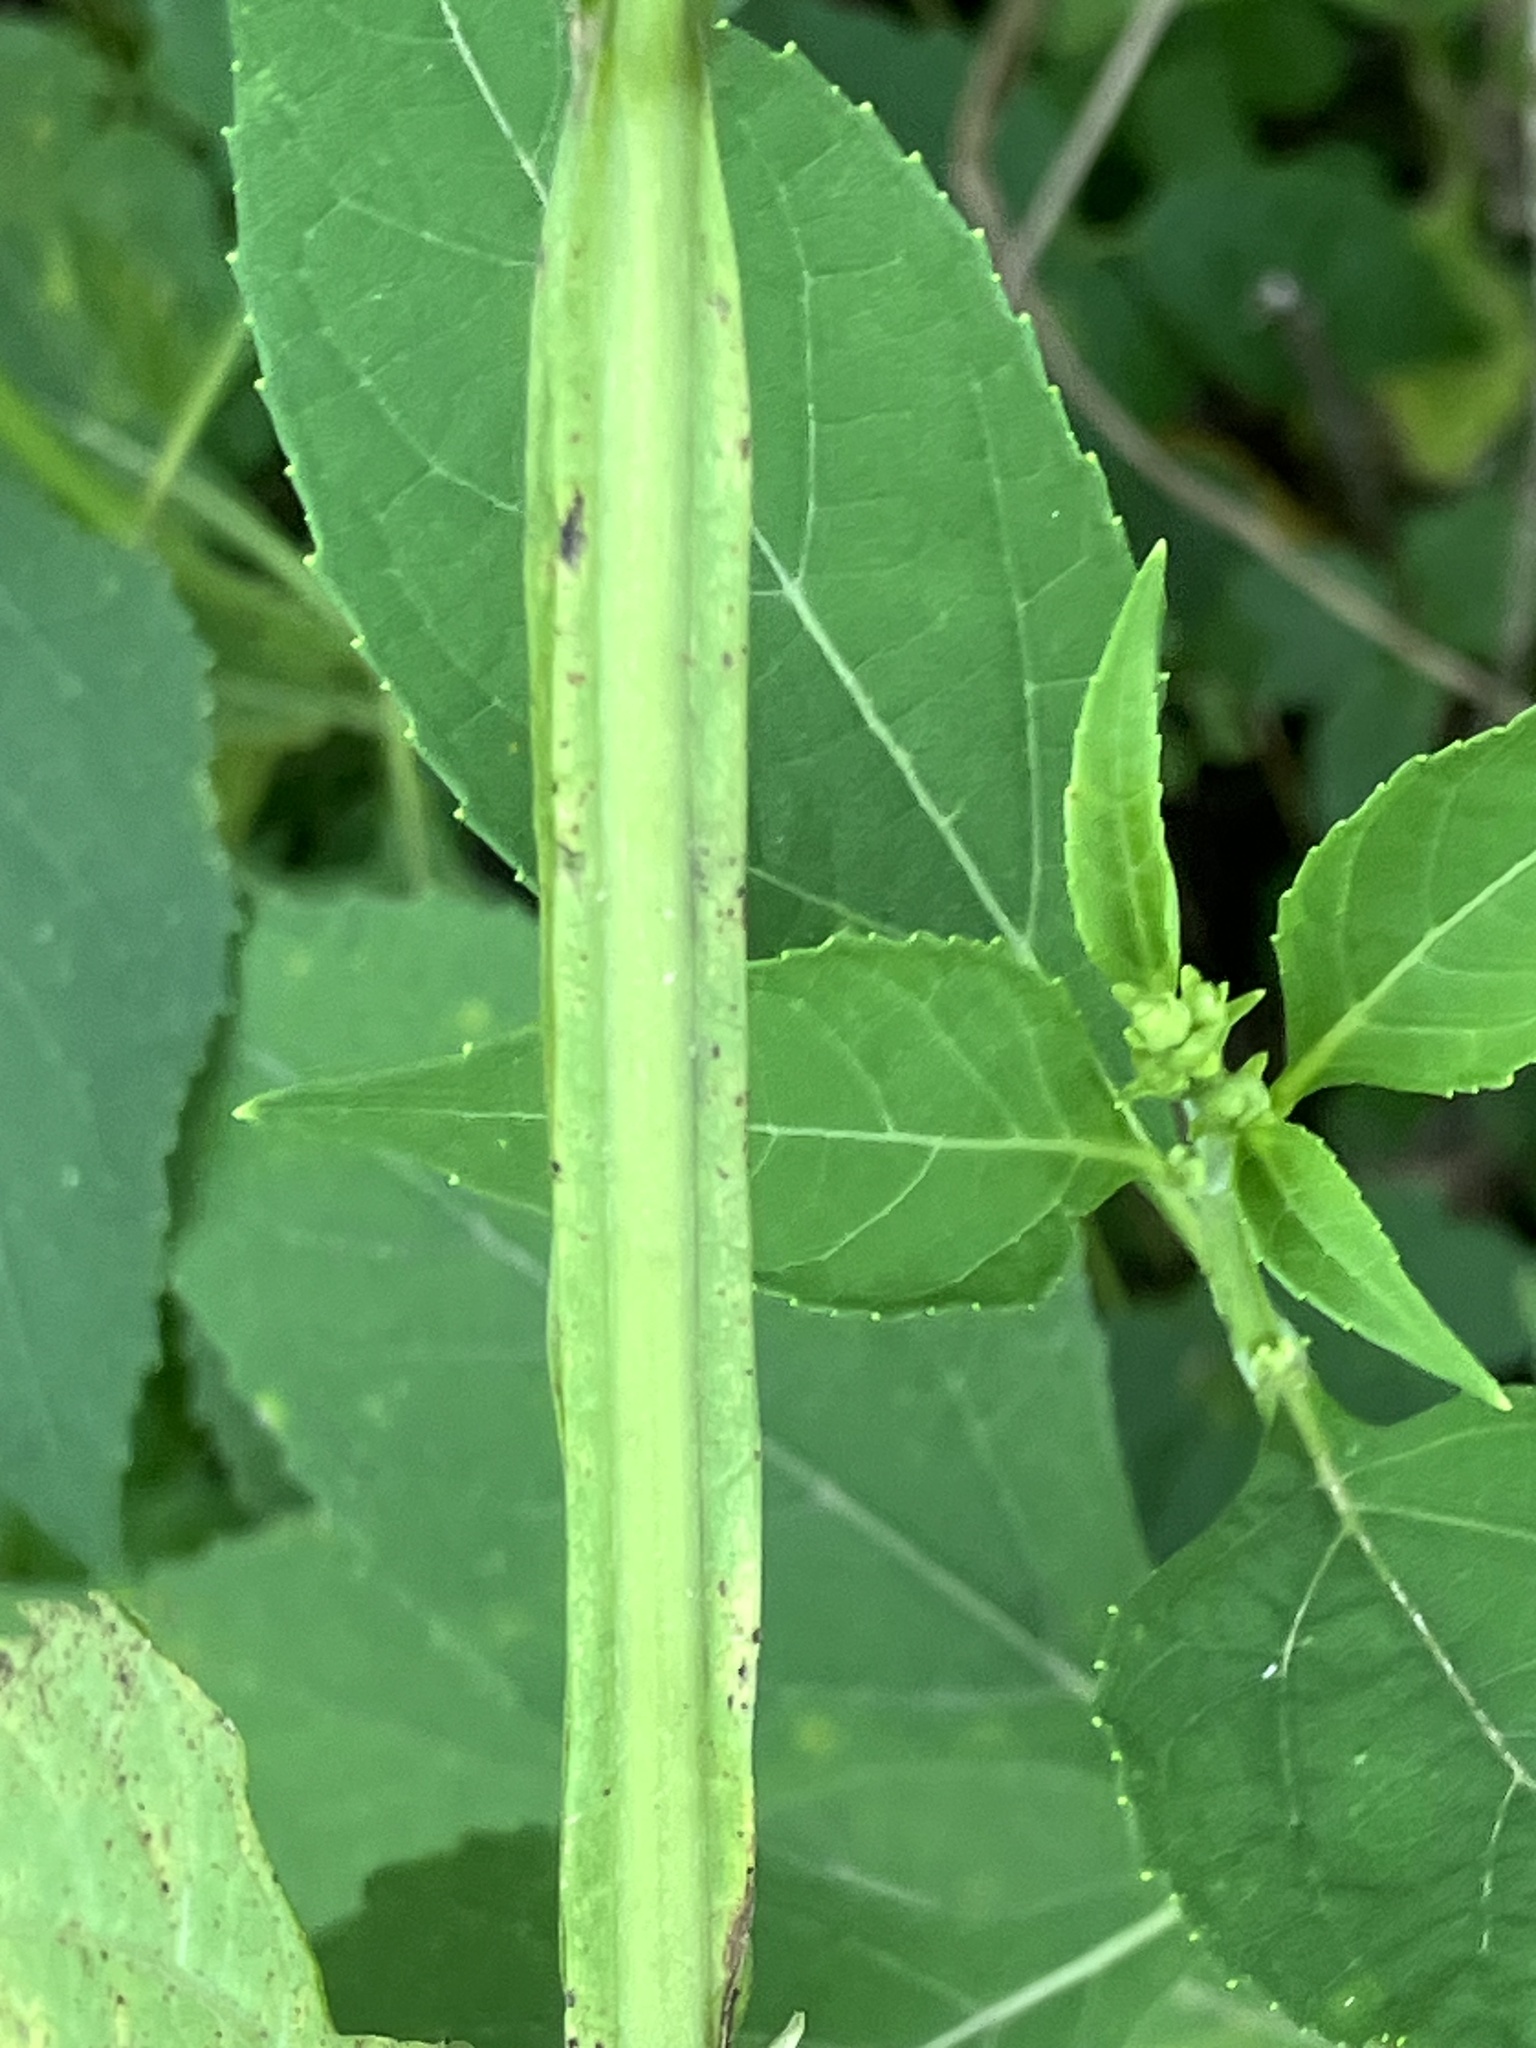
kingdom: Plantae
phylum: Tracheophyta
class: Magnoliopsida
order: Asterales
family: Asteraceae
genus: Verbesina
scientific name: Verbesina occidentalis
